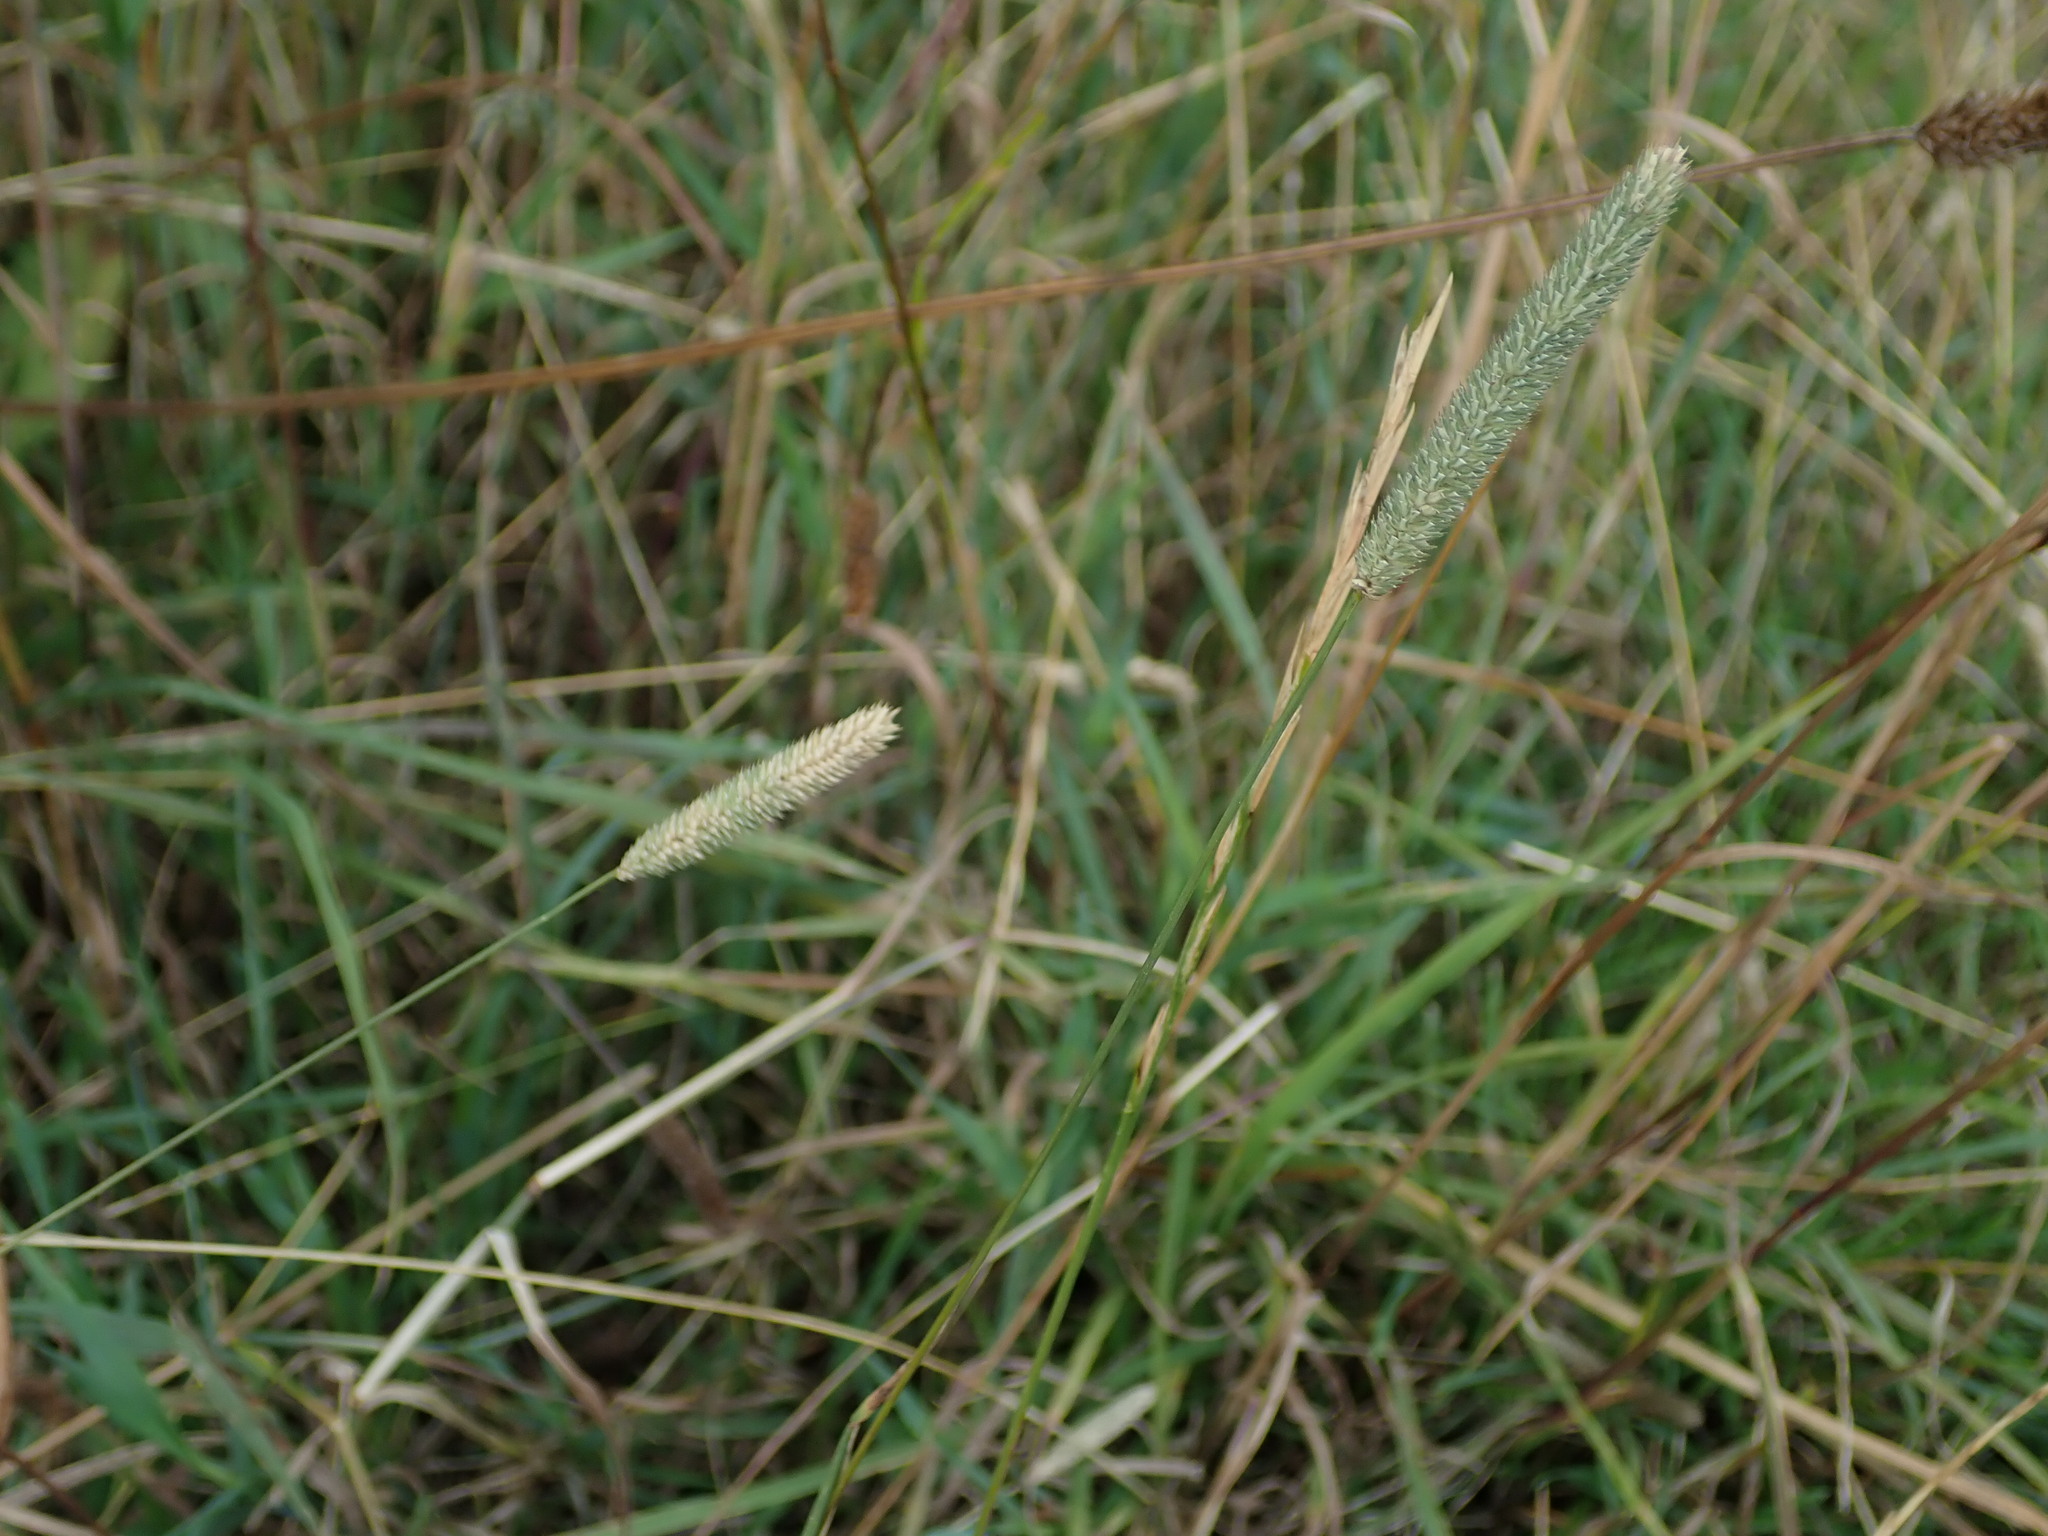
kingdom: Plantae
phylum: Tracheophyta
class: Liliopsida
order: Poales
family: Poaceae
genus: Phleum
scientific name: Phleum bertolonii
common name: Smaller cat's-tail
